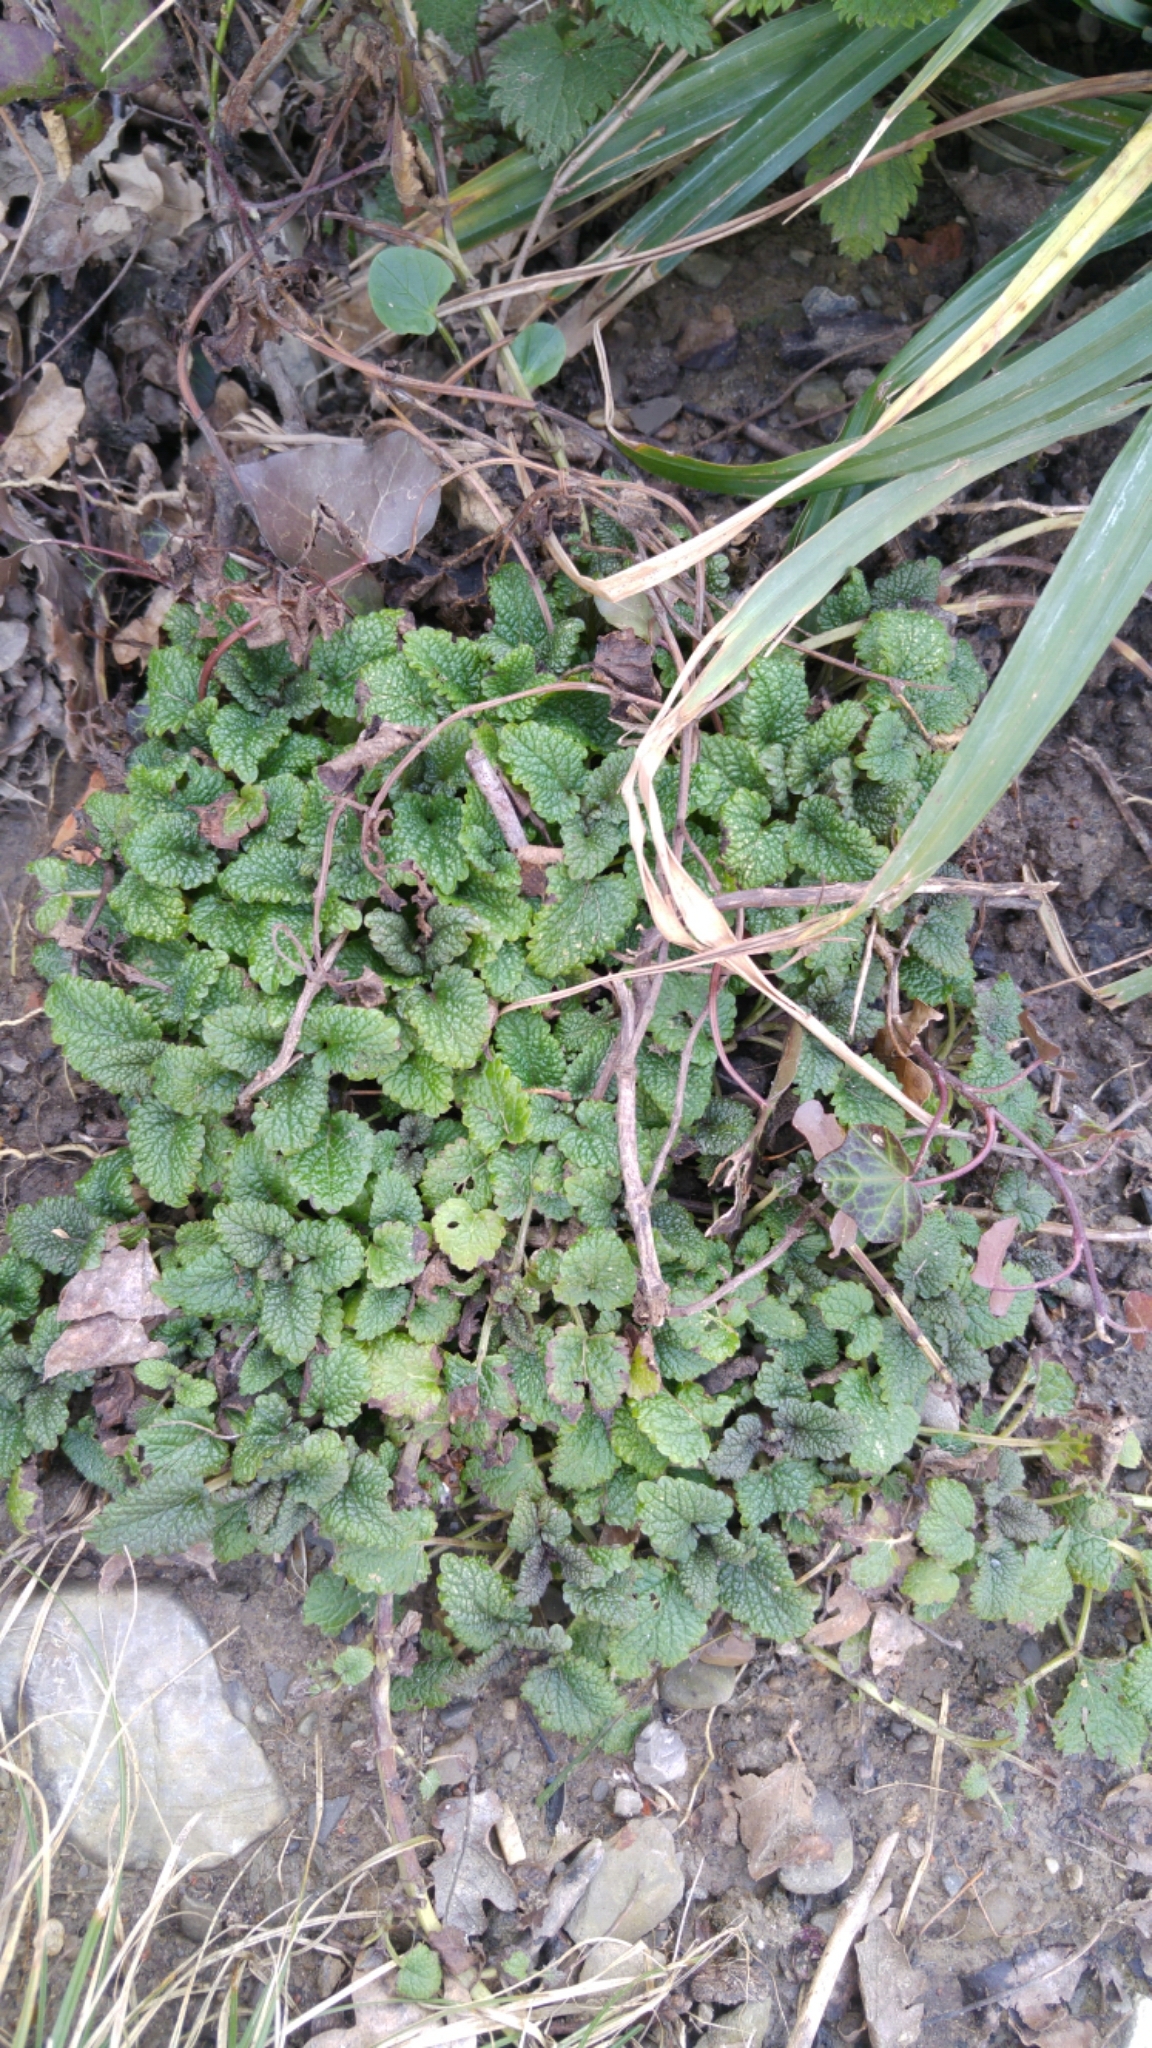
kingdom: Plantae
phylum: Tracheophyta
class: Magnoliopsida
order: Lamiales
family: Lamiaceae
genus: Melissa
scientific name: Melissa officinalis
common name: Balm
